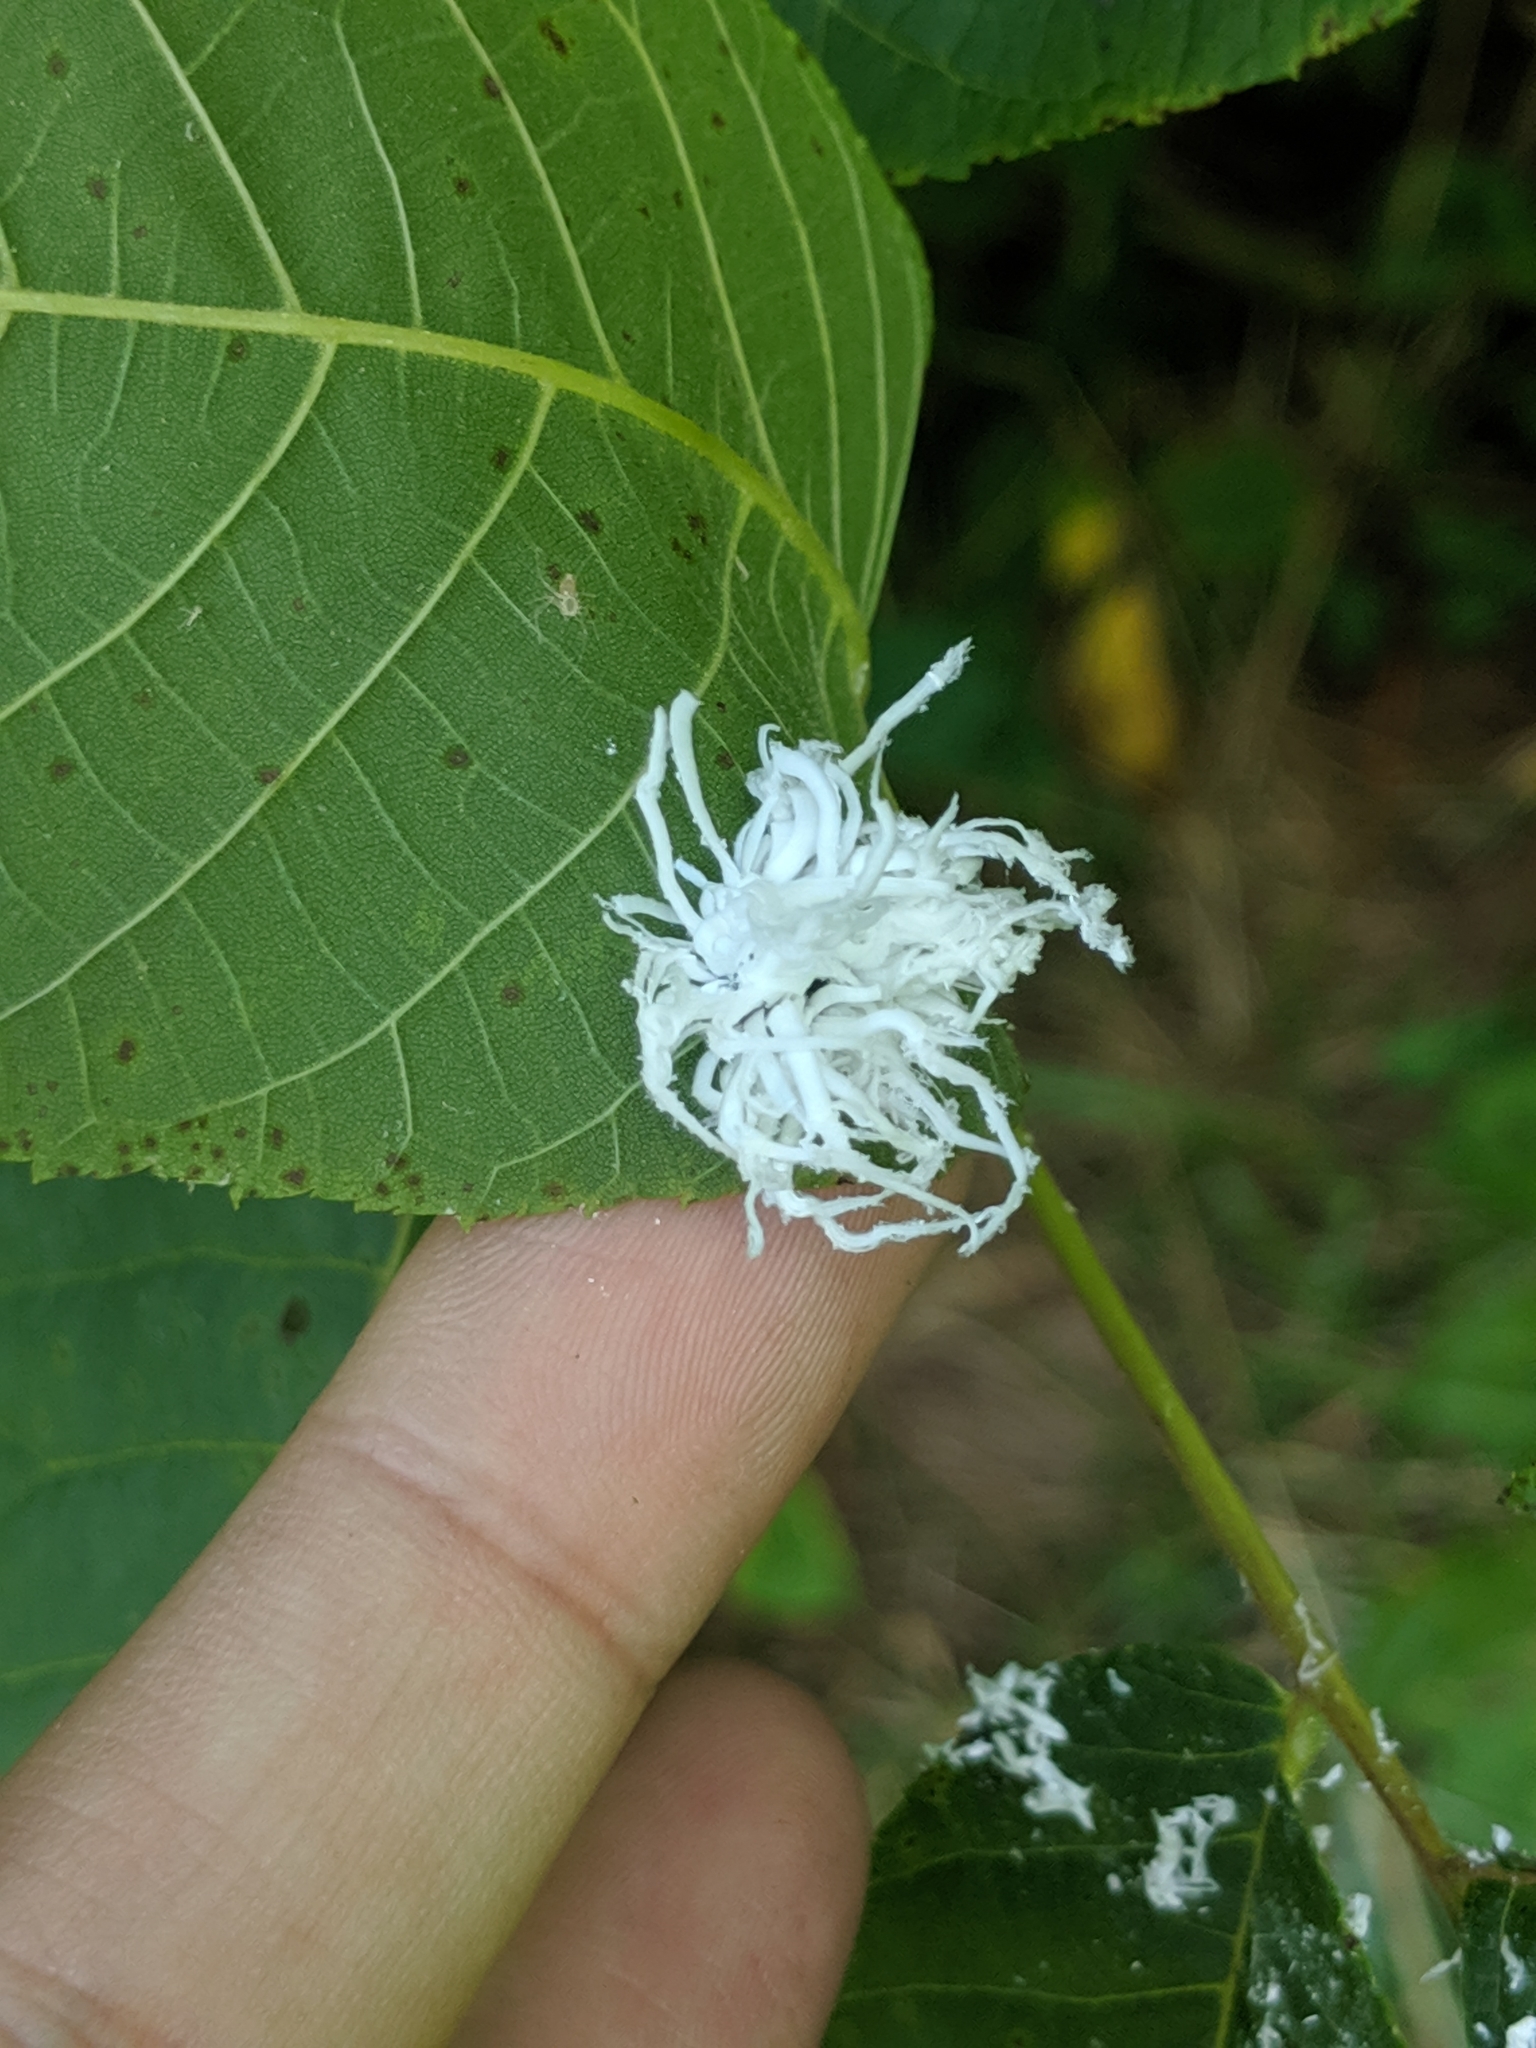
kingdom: Animalia
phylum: Arthropoda
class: Insecta
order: Hymenoptera
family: Tenthredinidae
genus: Eriocampa
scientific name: Eriocampa juglandis
